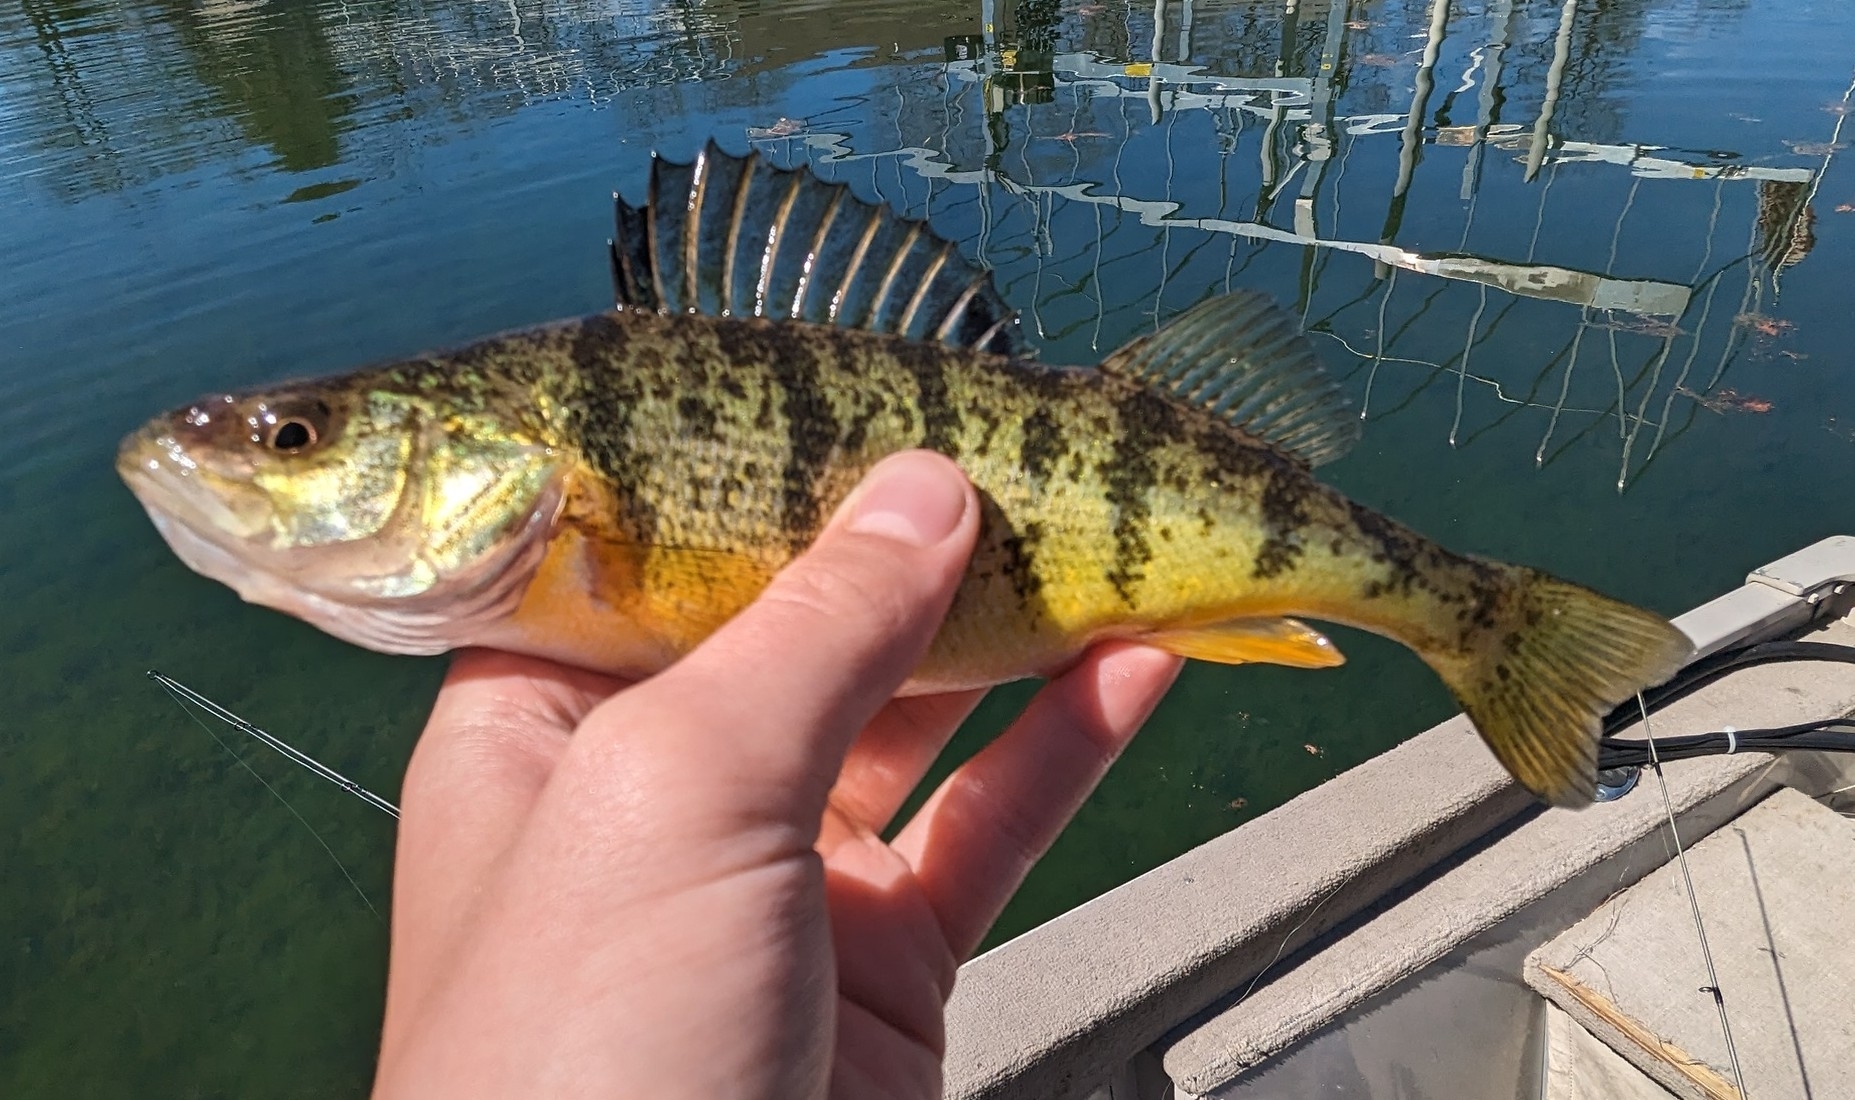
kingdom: Animalia
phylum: Chordata
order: Perciformes
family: Percidae
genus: Perca
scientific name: Perca flavescens
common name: Yellow perch
